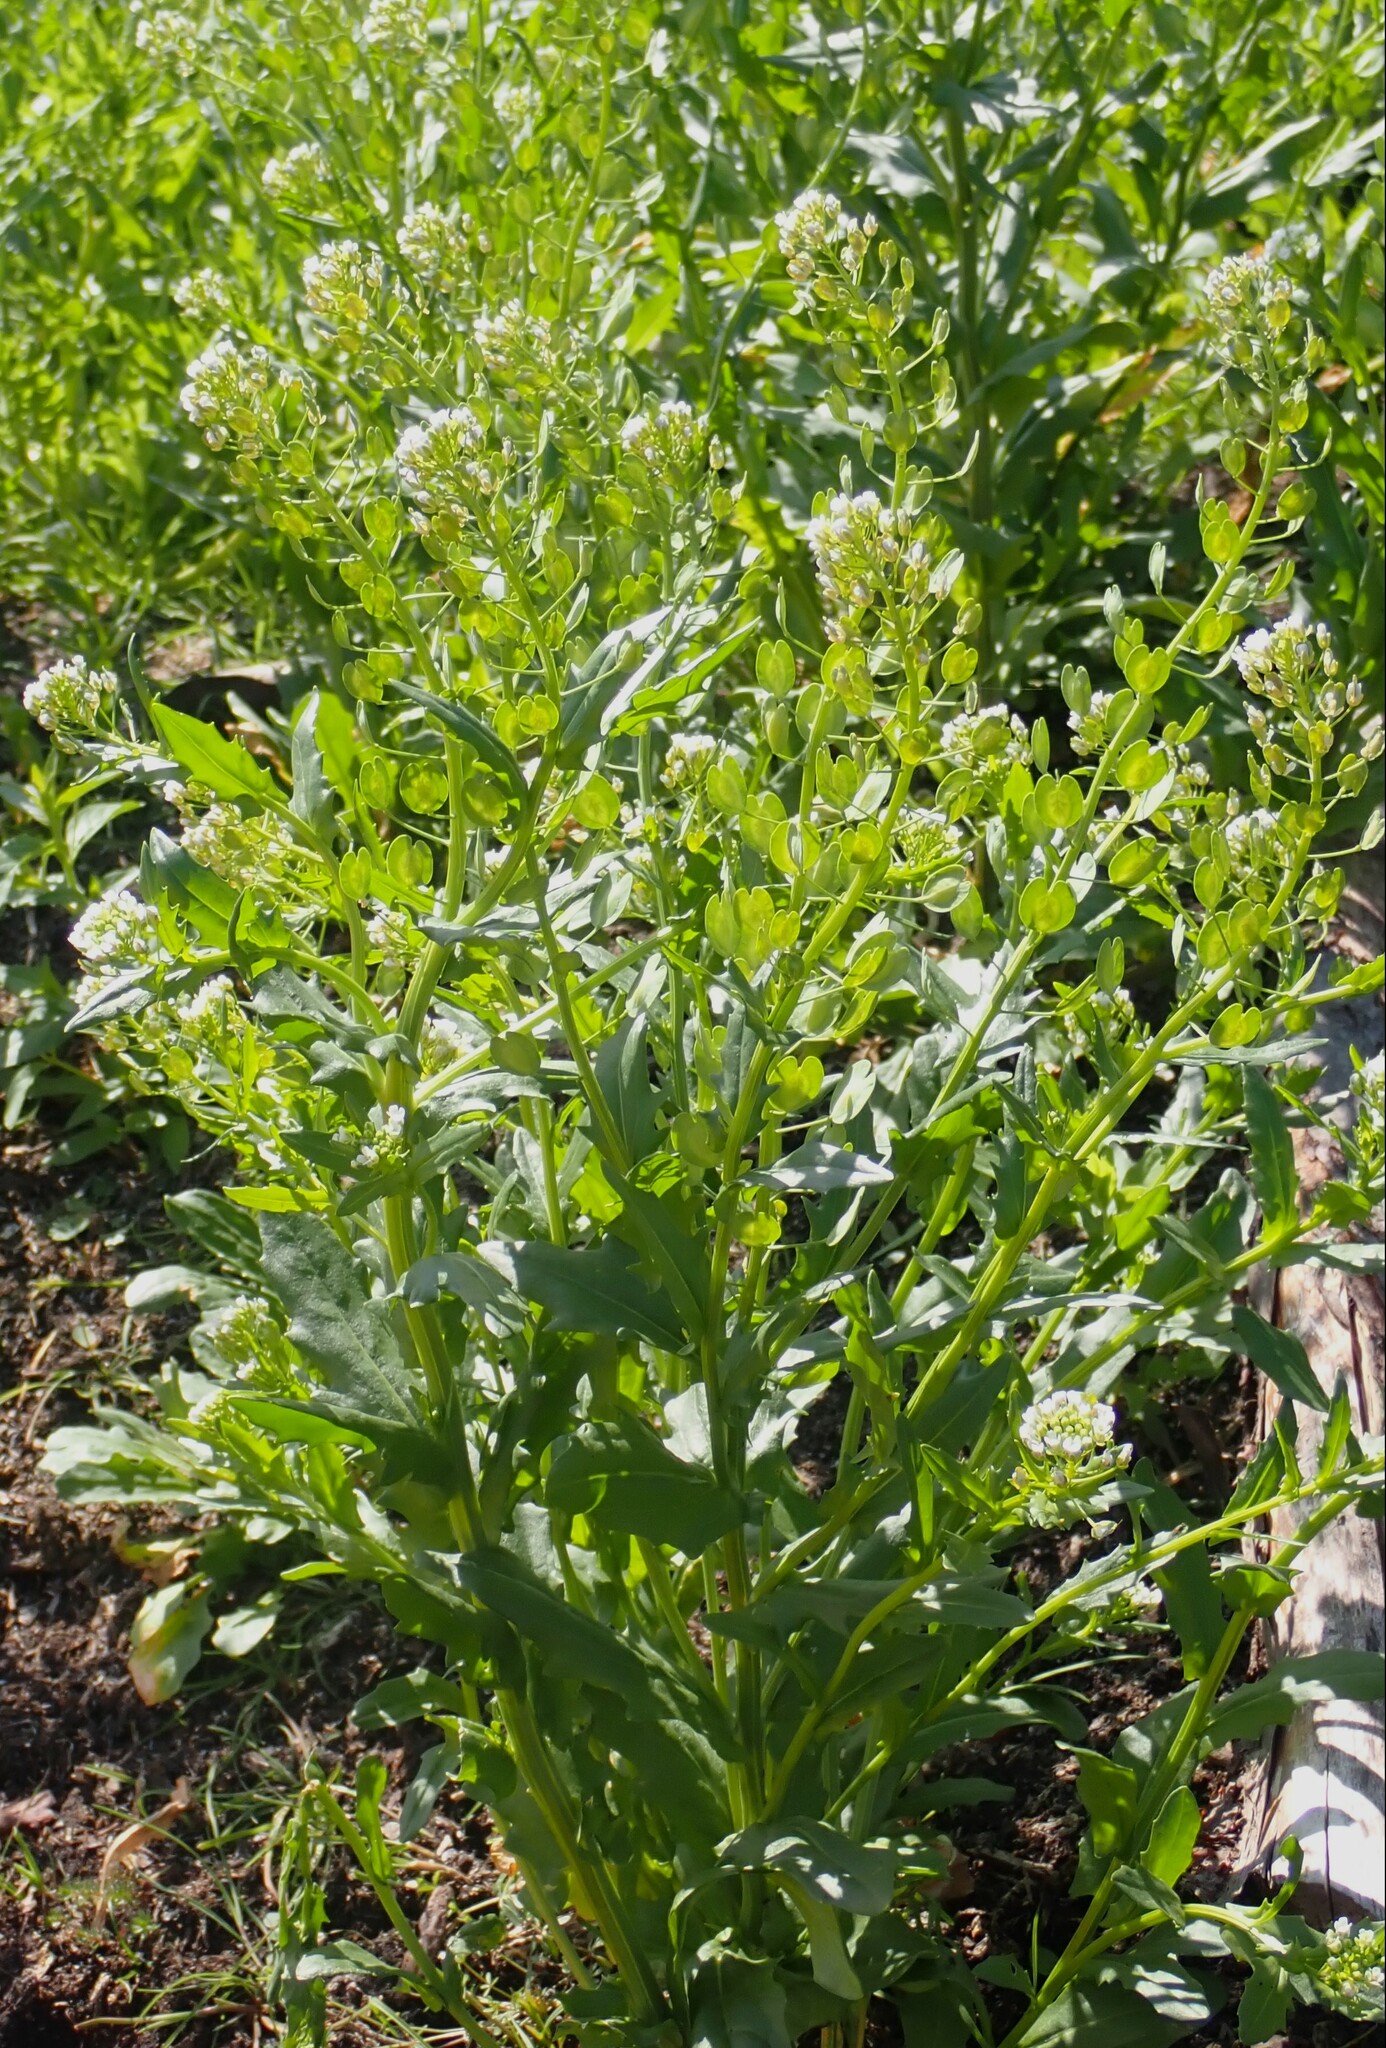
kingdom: Plantae
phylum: Tracheophyta
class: Magnoliopsida
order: Brassicales
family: Brassicaceae
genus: Thlaspi
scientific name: Thlaspi arvense
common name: Field pennycress
